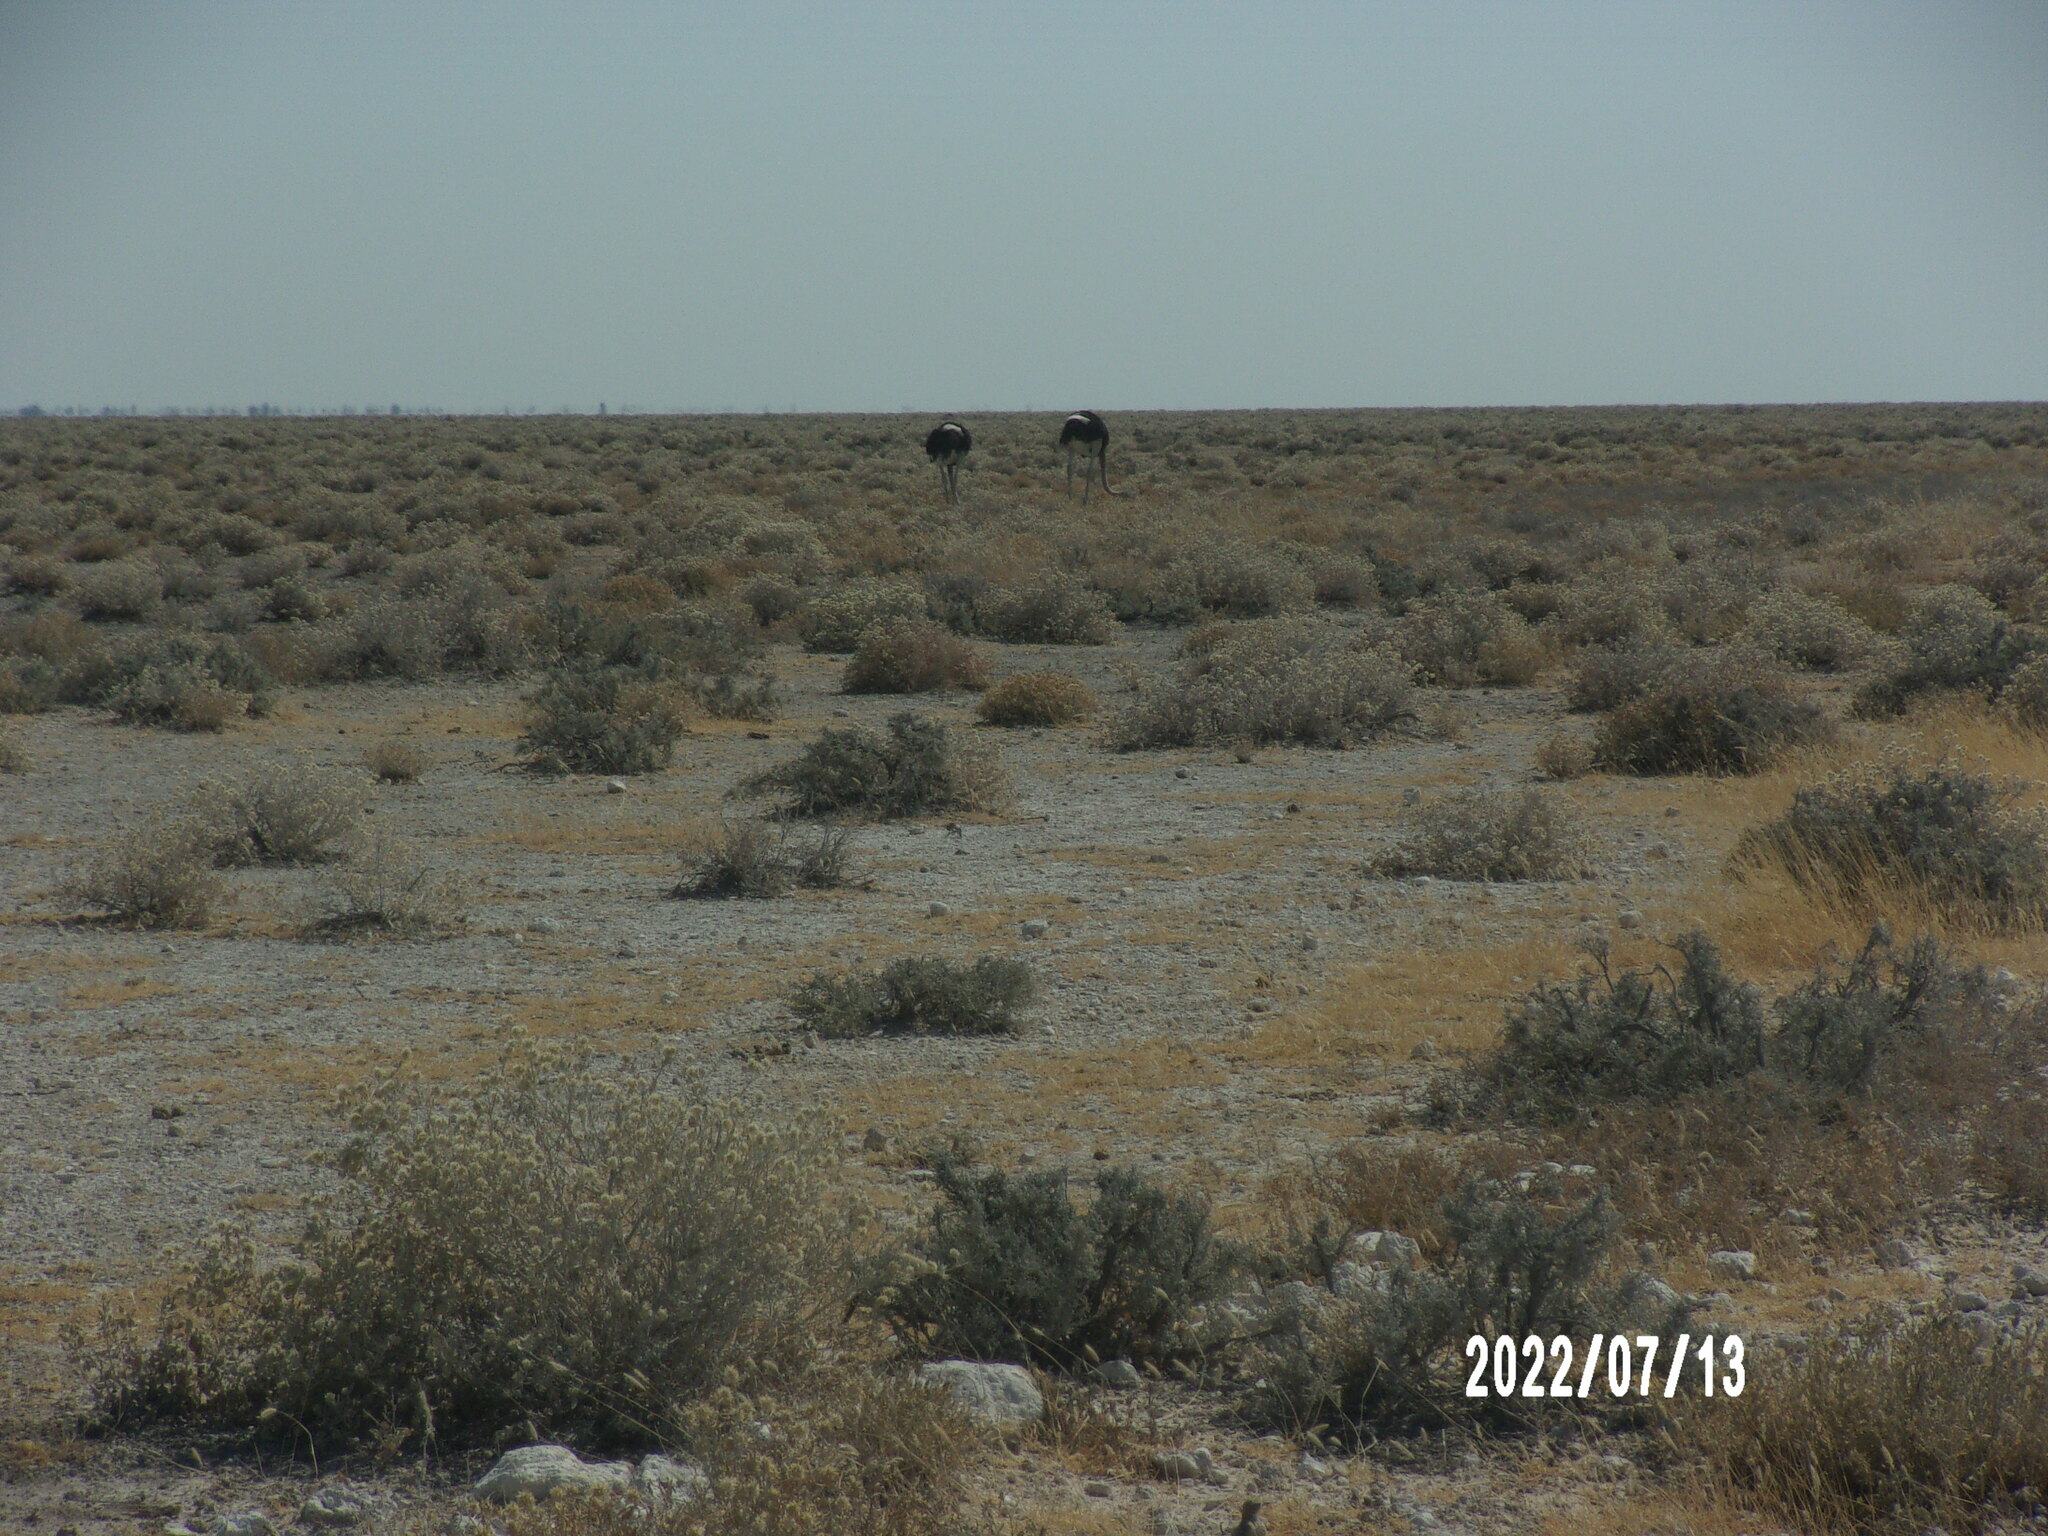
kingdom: Animalia
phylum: Chordata
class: Aves
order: Struthioniformes
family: Struthionidae
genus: Struthio
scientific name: Struthio camelus
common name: Common ostrich
